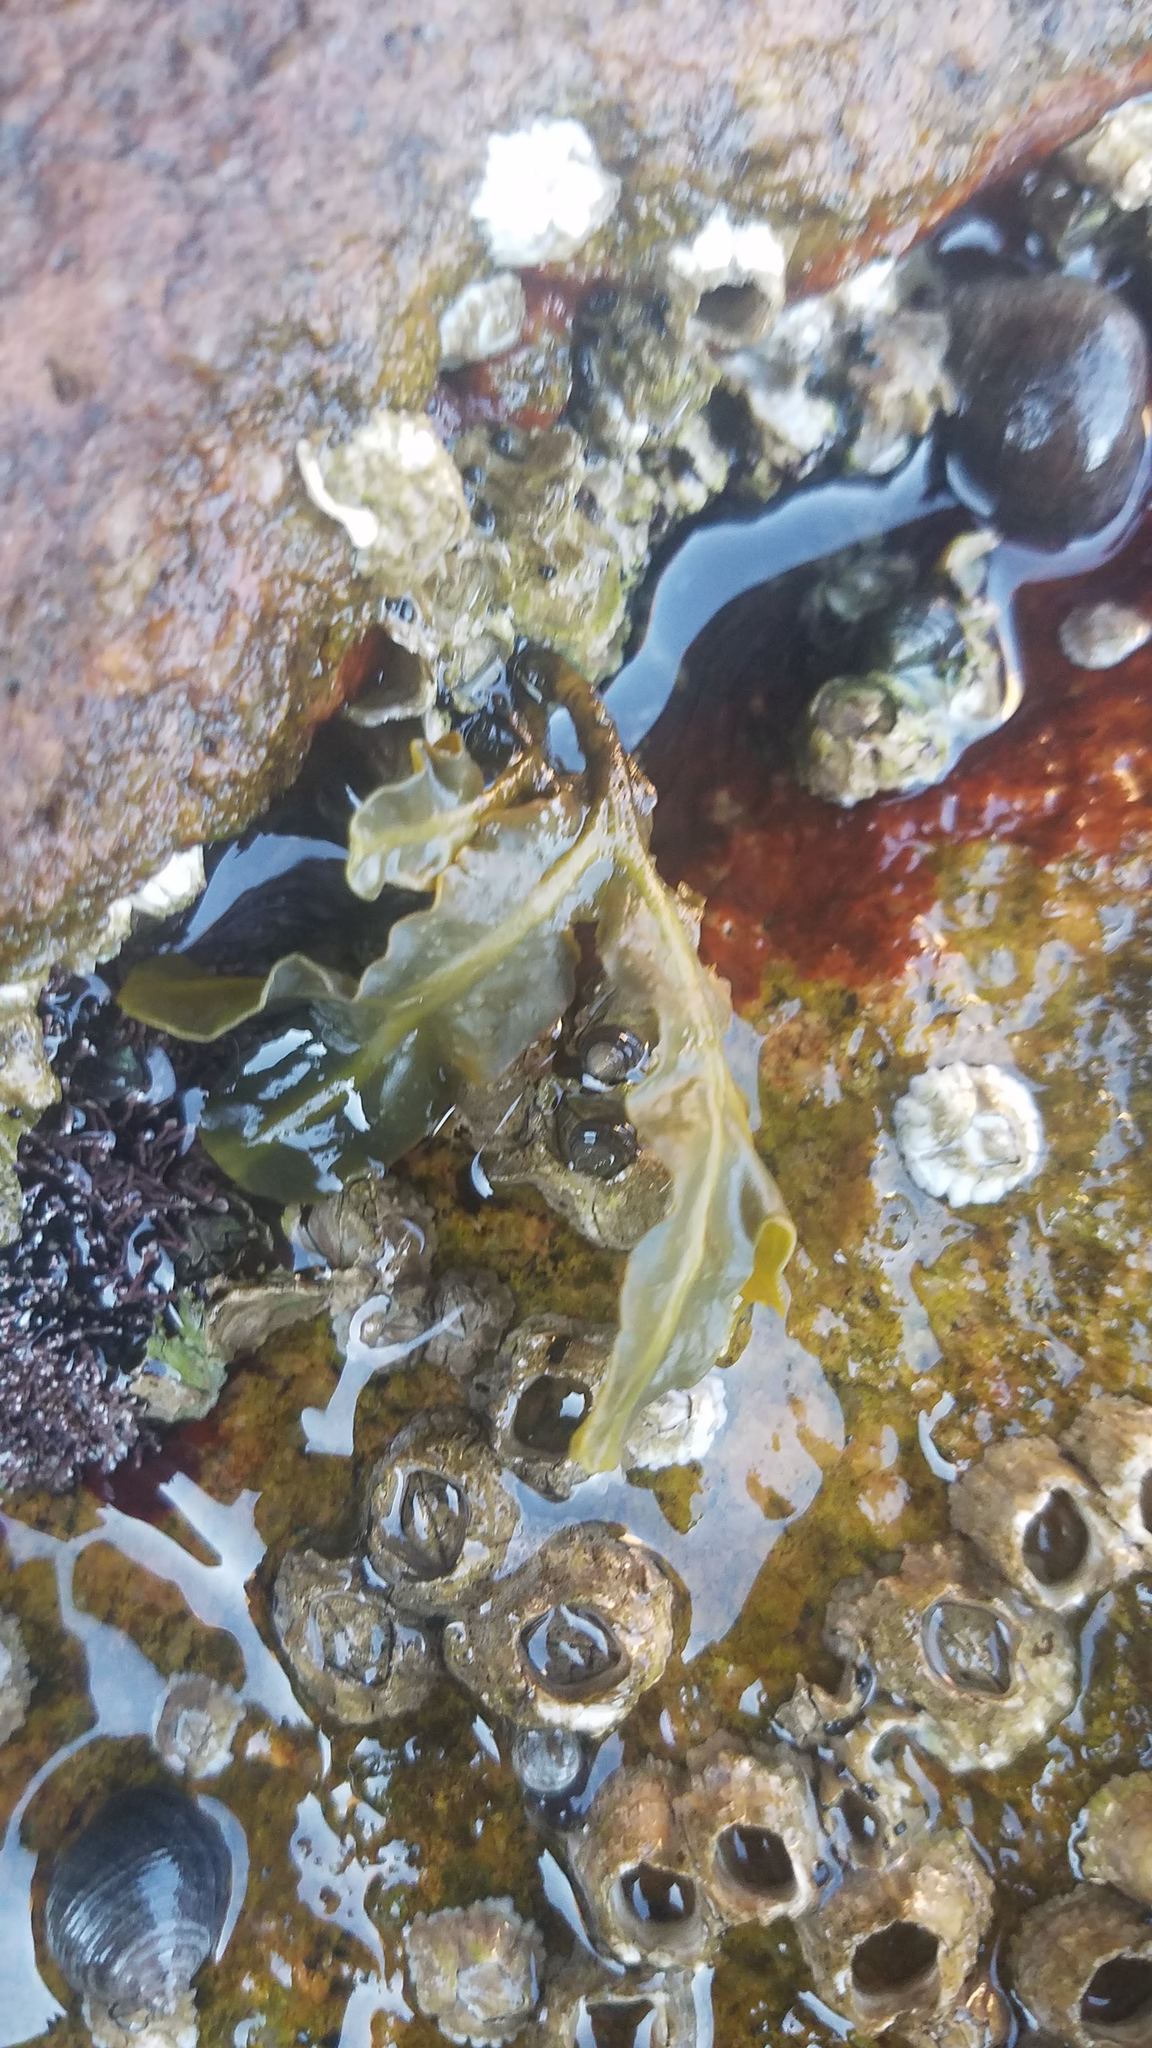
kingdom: Animalia
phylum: Arthropoda
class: Maxillopoda
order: Sessilia
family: Archaeobalanidae
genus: Semibalanus
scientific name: Semibalanus balanoides
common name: Acorn barnacle
